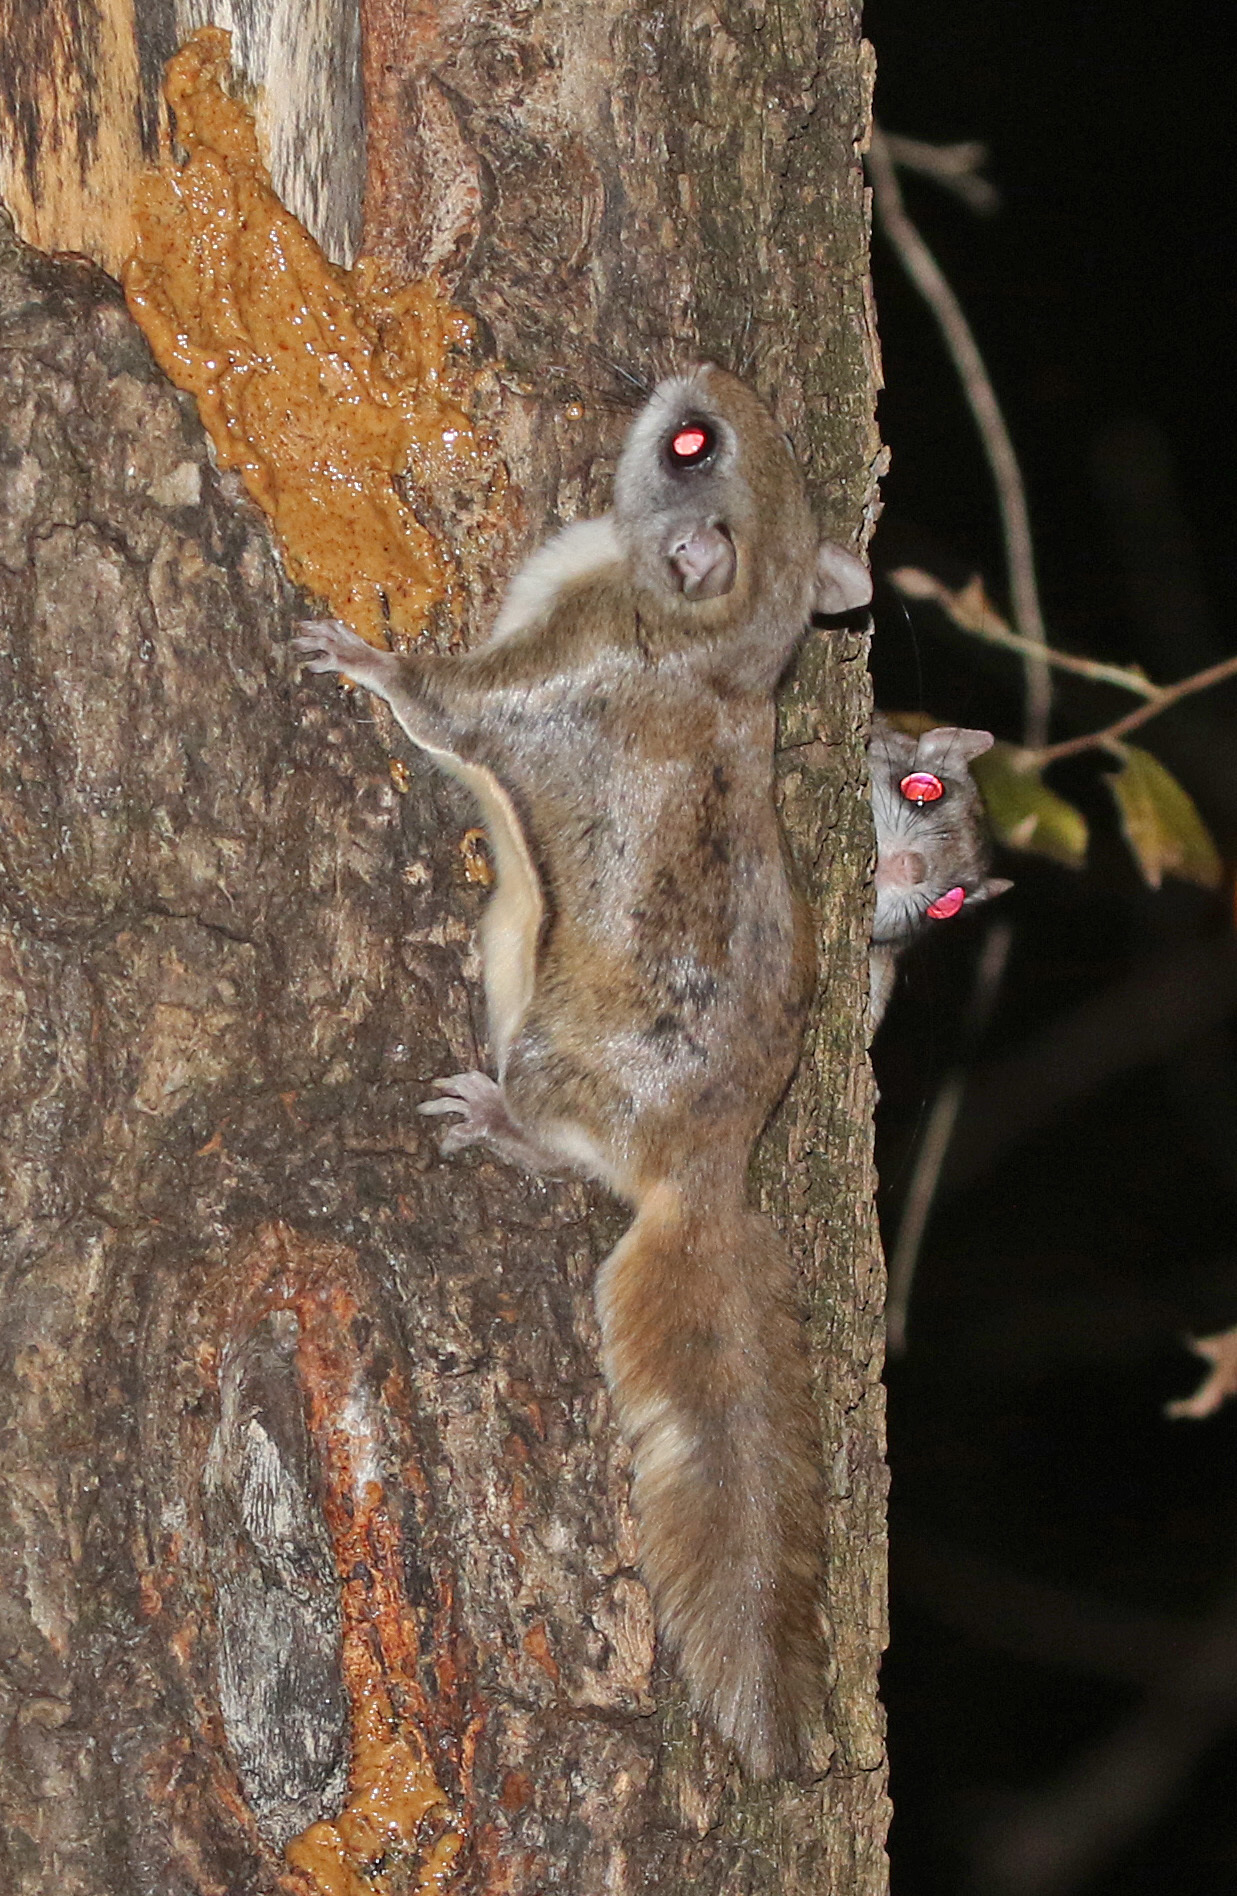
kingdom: Animalia
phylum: Chordata
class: Mammalia
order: Rodentia
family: Sciuridae
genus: Glaucomys
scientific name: Glaucomys volans
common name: Southern flying squirrel
